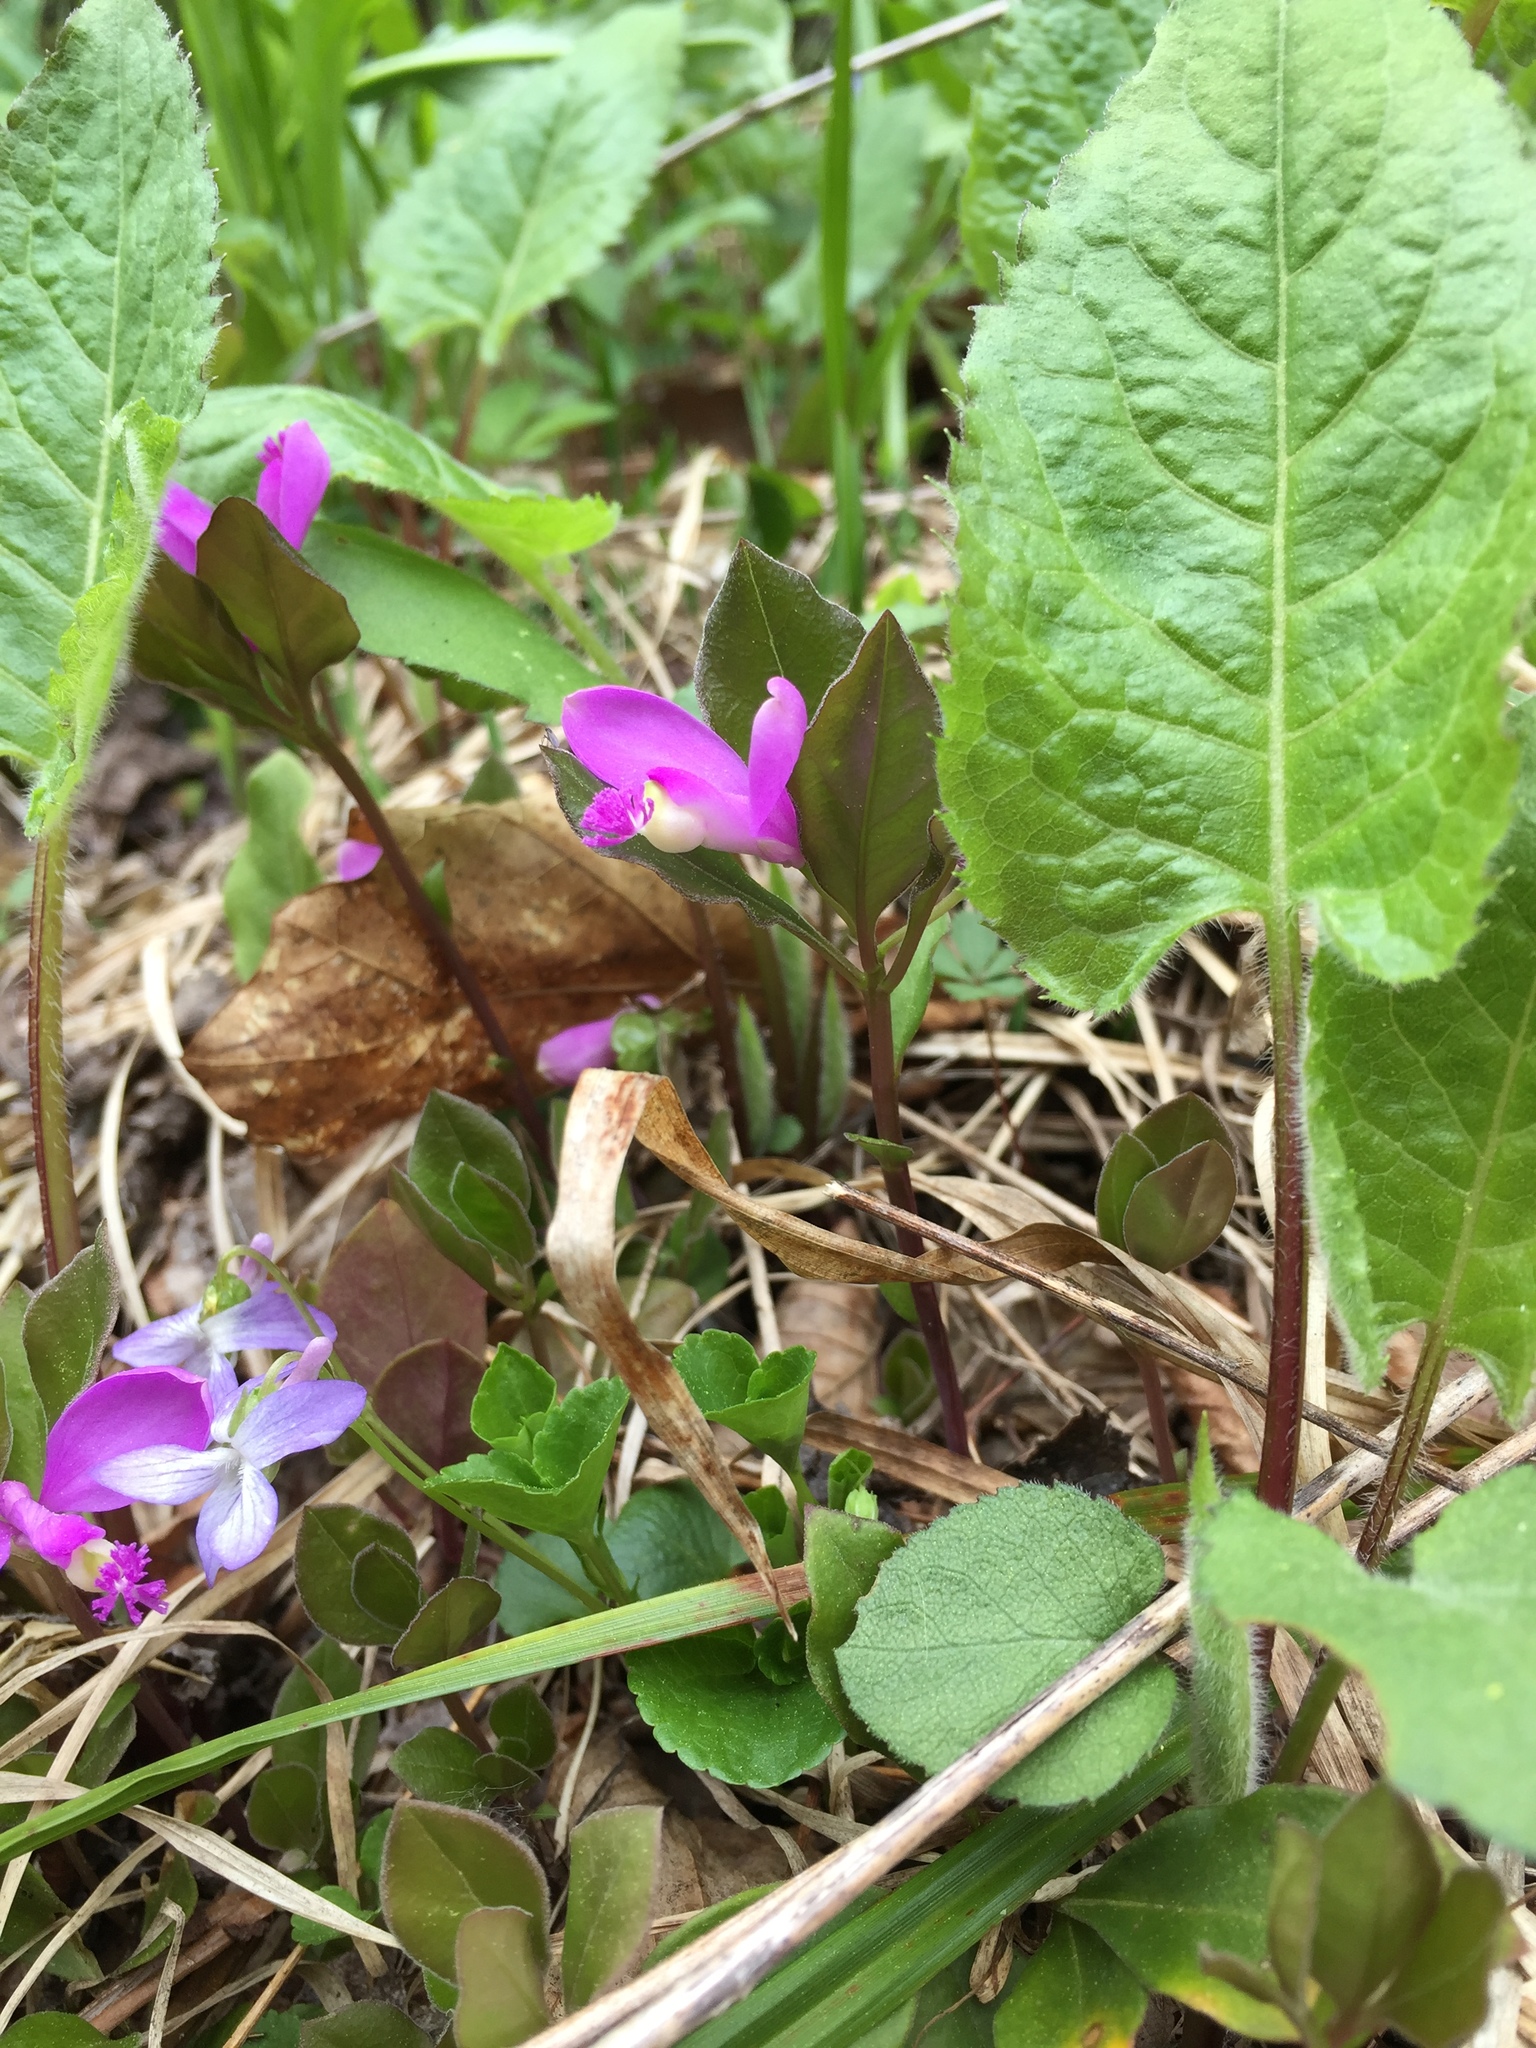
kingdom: Plantae
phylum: Tracheophyta
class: Magnoliopsida
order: Fabales
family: Polygalaceae
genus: Polygaloides
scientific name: Polygaloides paucifolia
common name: Bird-on-the-wing
